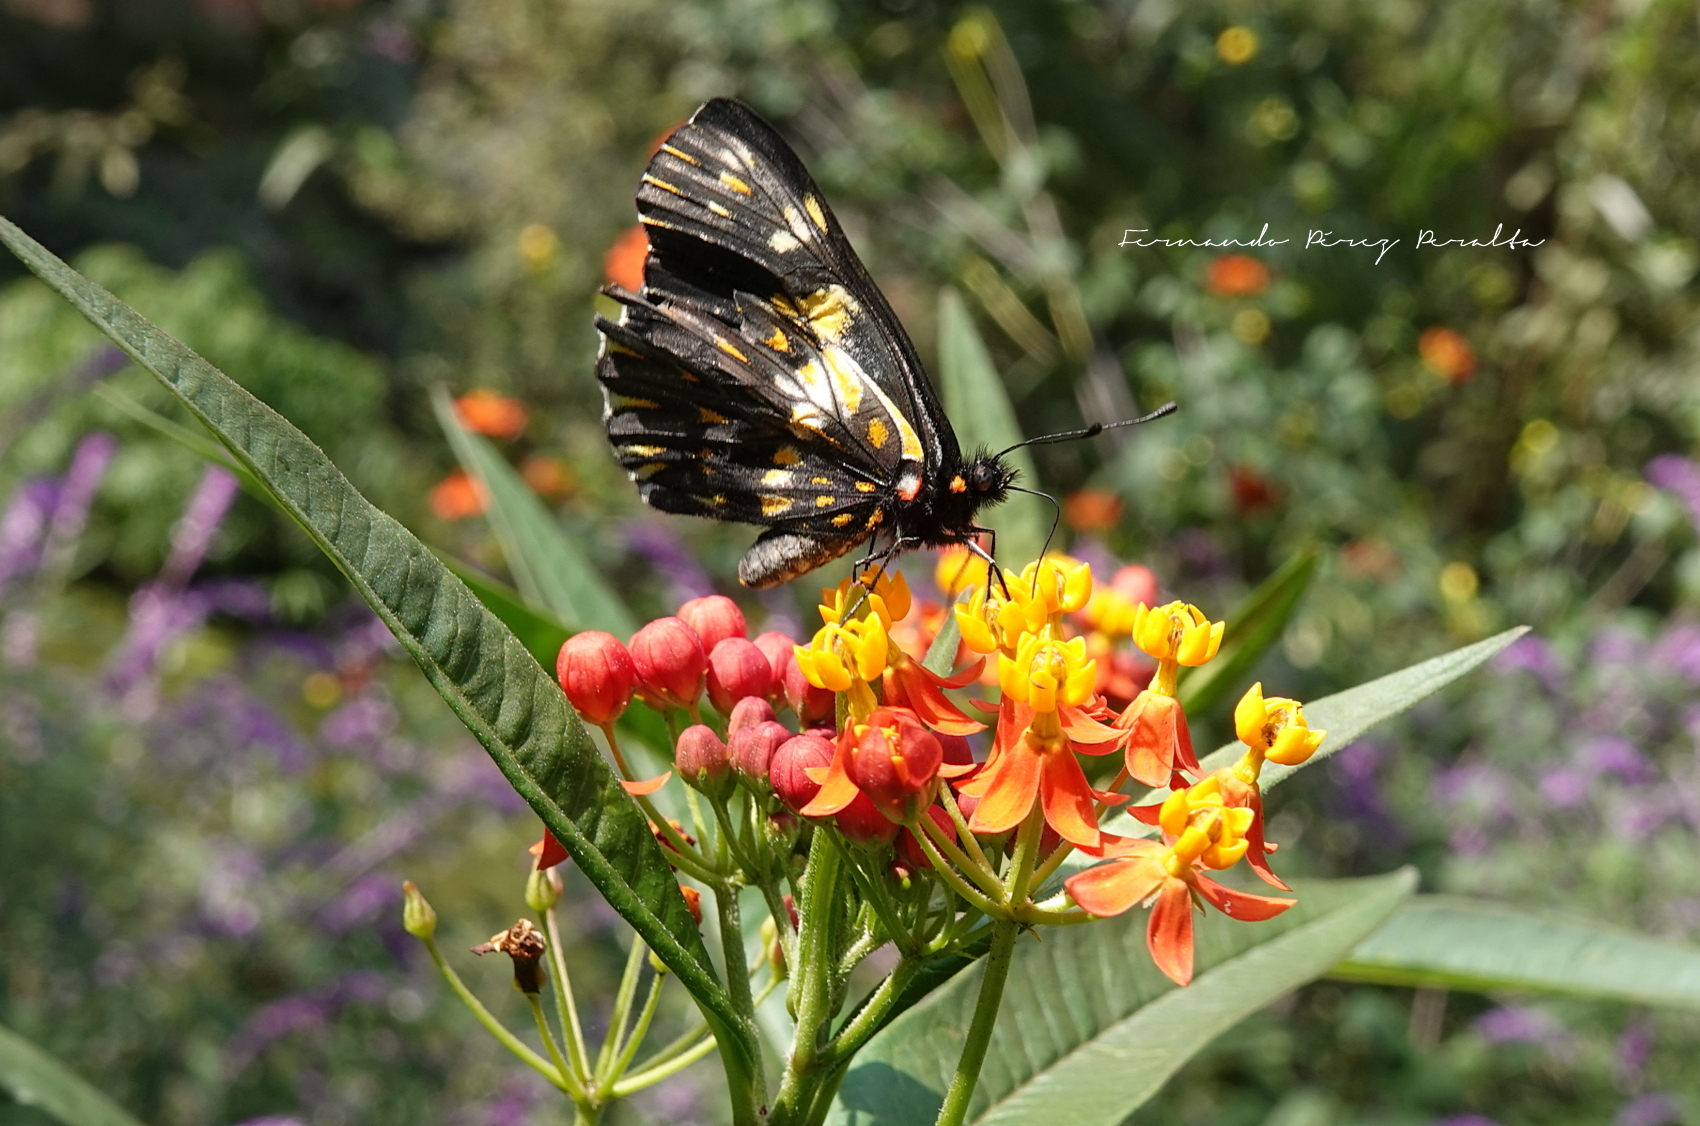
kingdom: Animalia
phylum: Arthropoda
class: Insecta
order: Lepidoptera
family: Pieridae
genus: Archonias
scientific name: Archonias teutila
